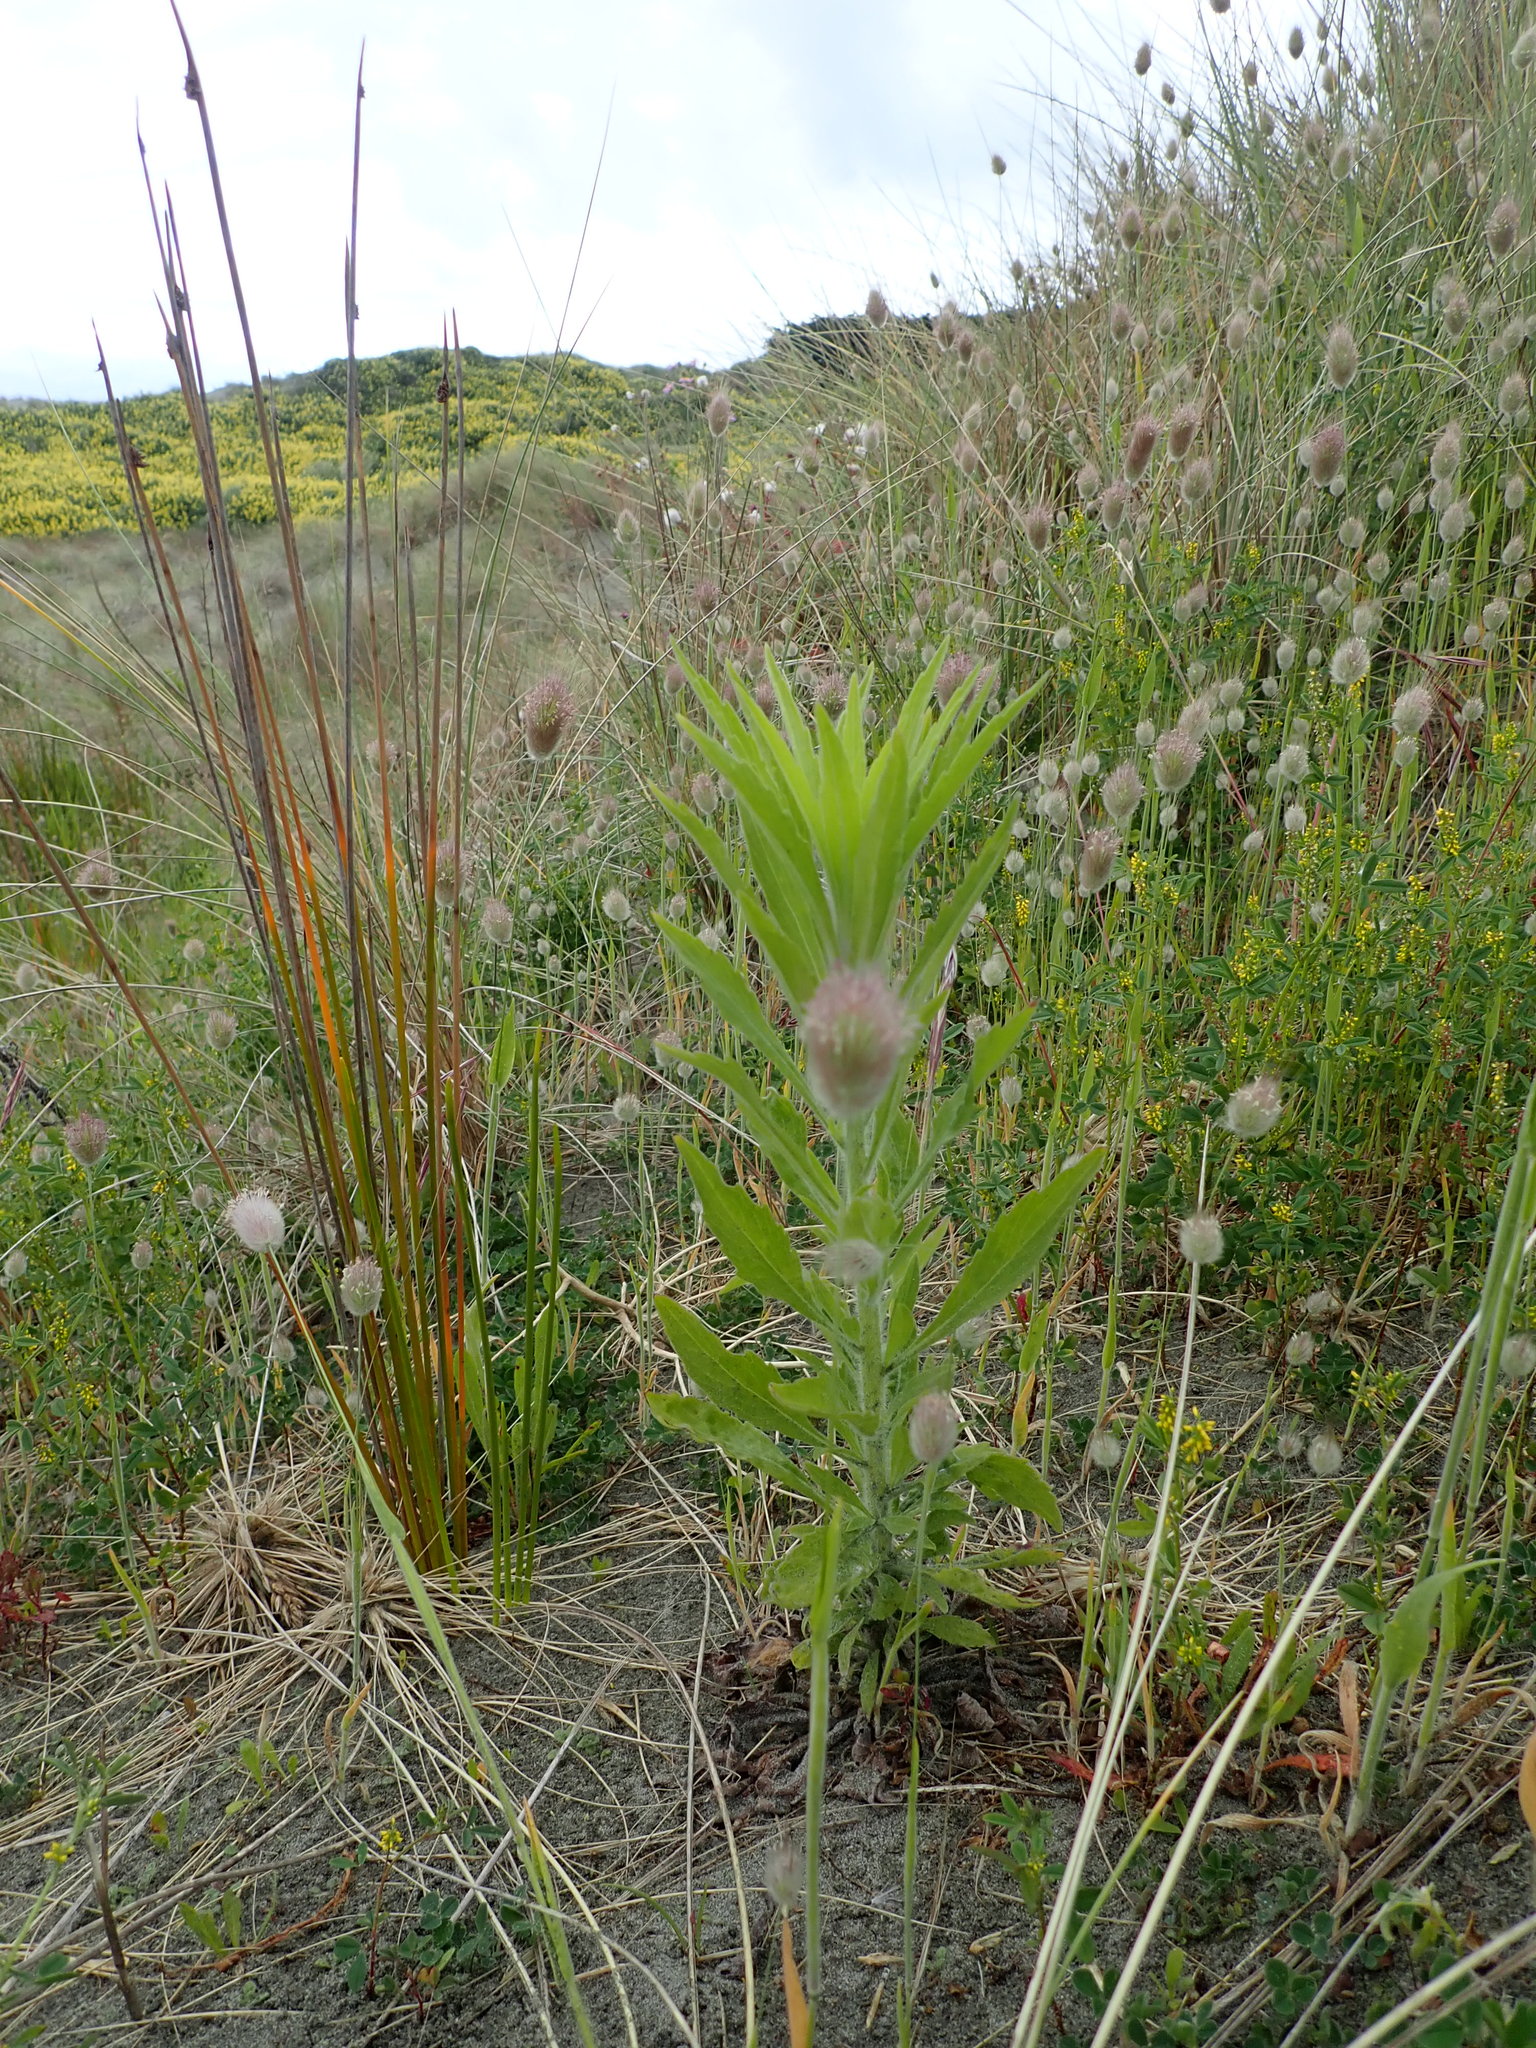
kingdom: Plantae
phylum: Tracheophyta
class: Magnoliopsida
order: Asterales
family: Asteraceae
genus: Erigeron
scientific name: Erigeron sumatrensis
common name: Daisy
